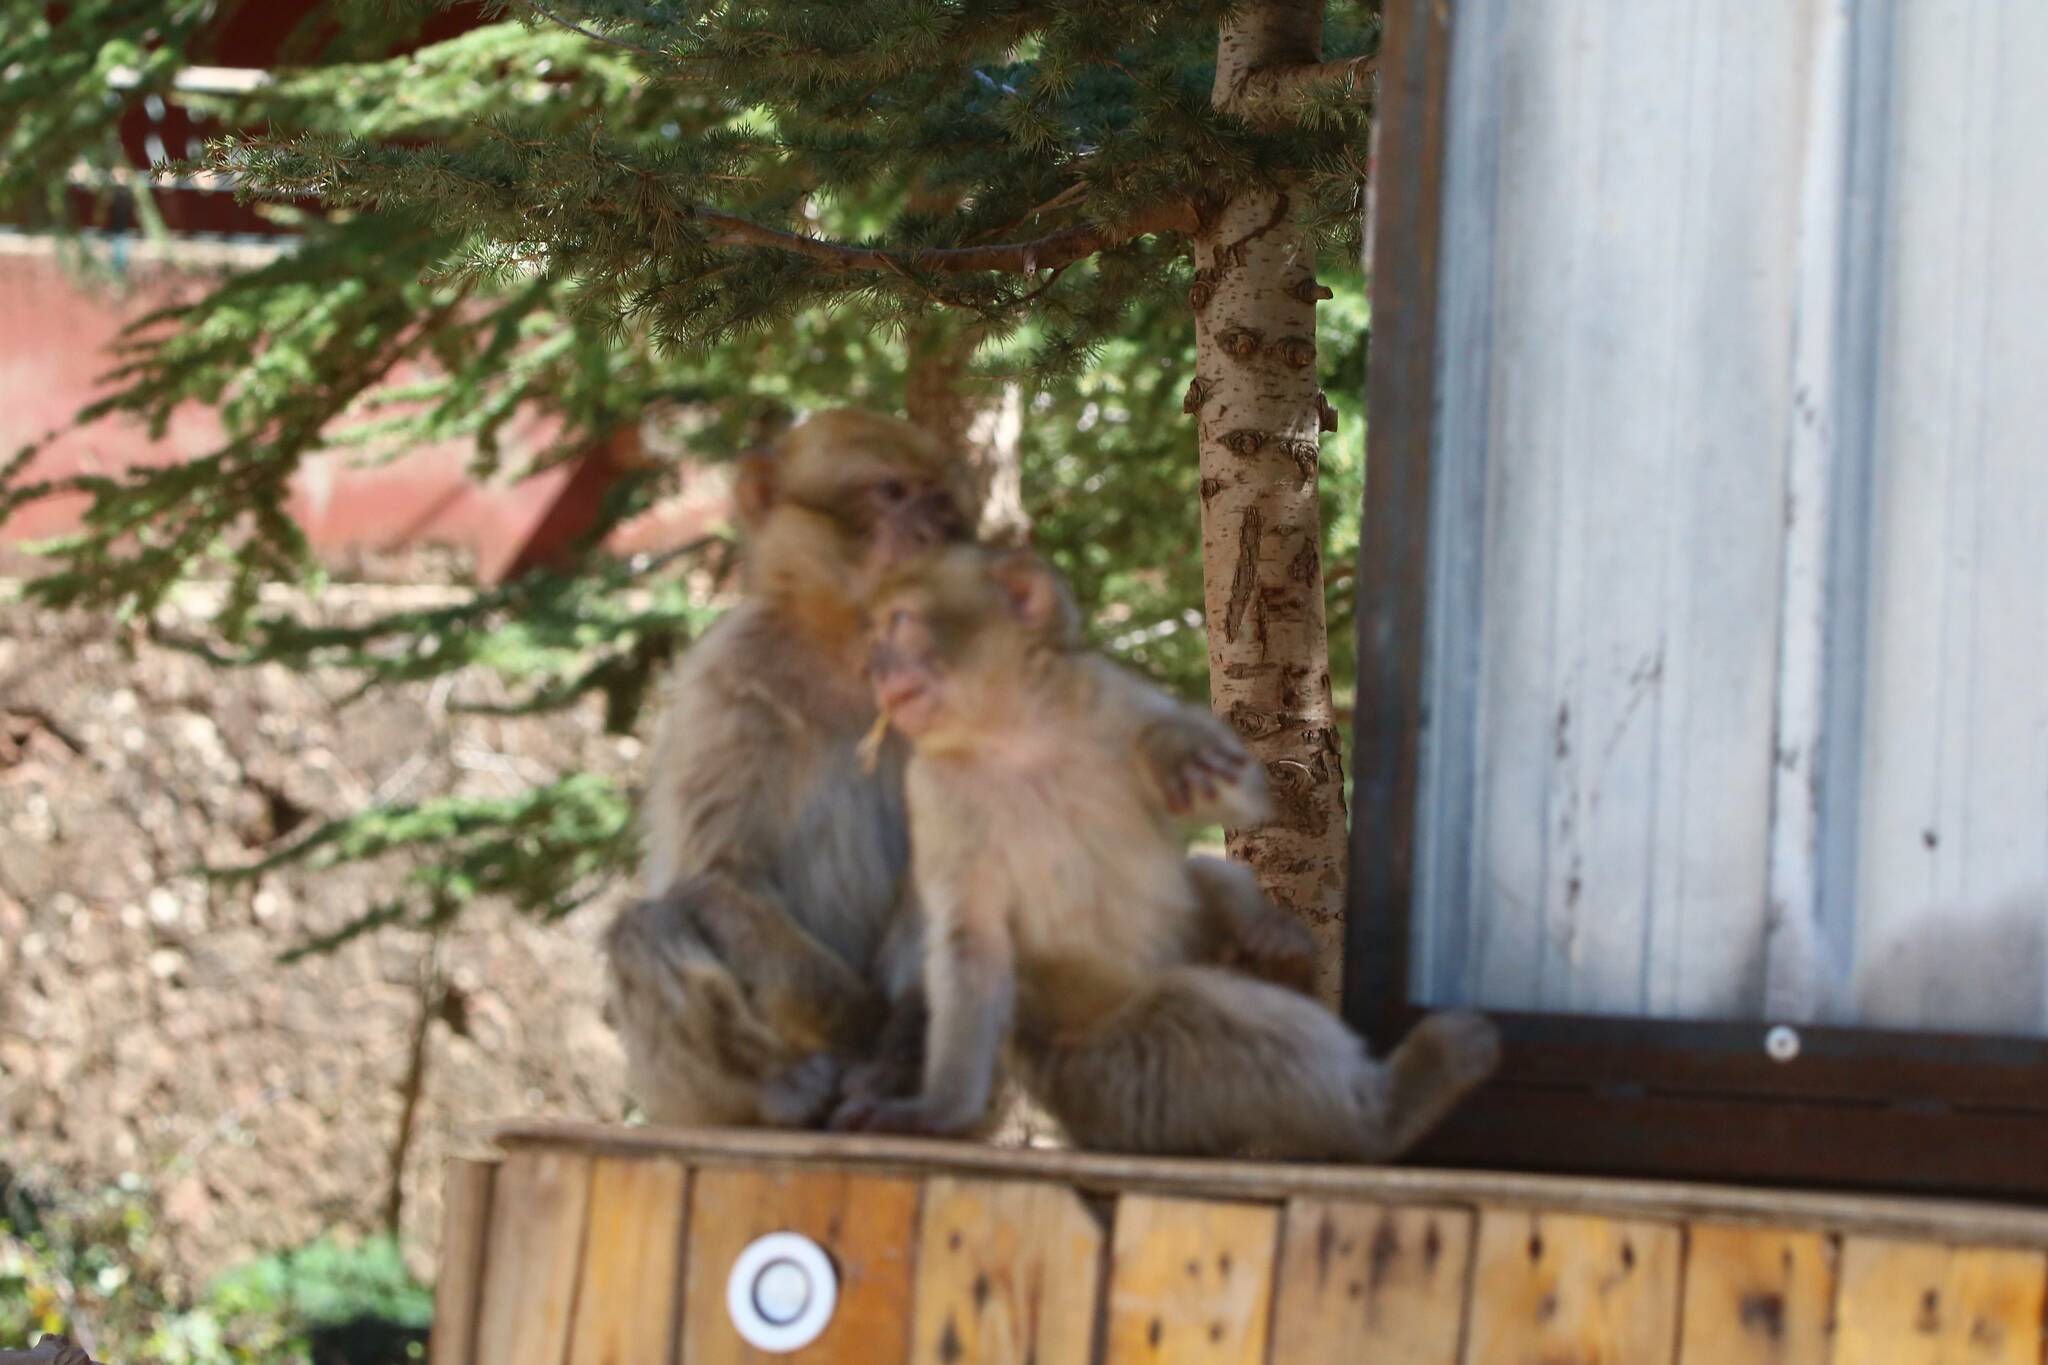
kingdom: Animalia
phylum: Chordata
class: Mammalia
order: Primates
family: Cercopithecidae
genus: Macaca
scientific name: Macaca sylvanus
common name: Barbary macaque
